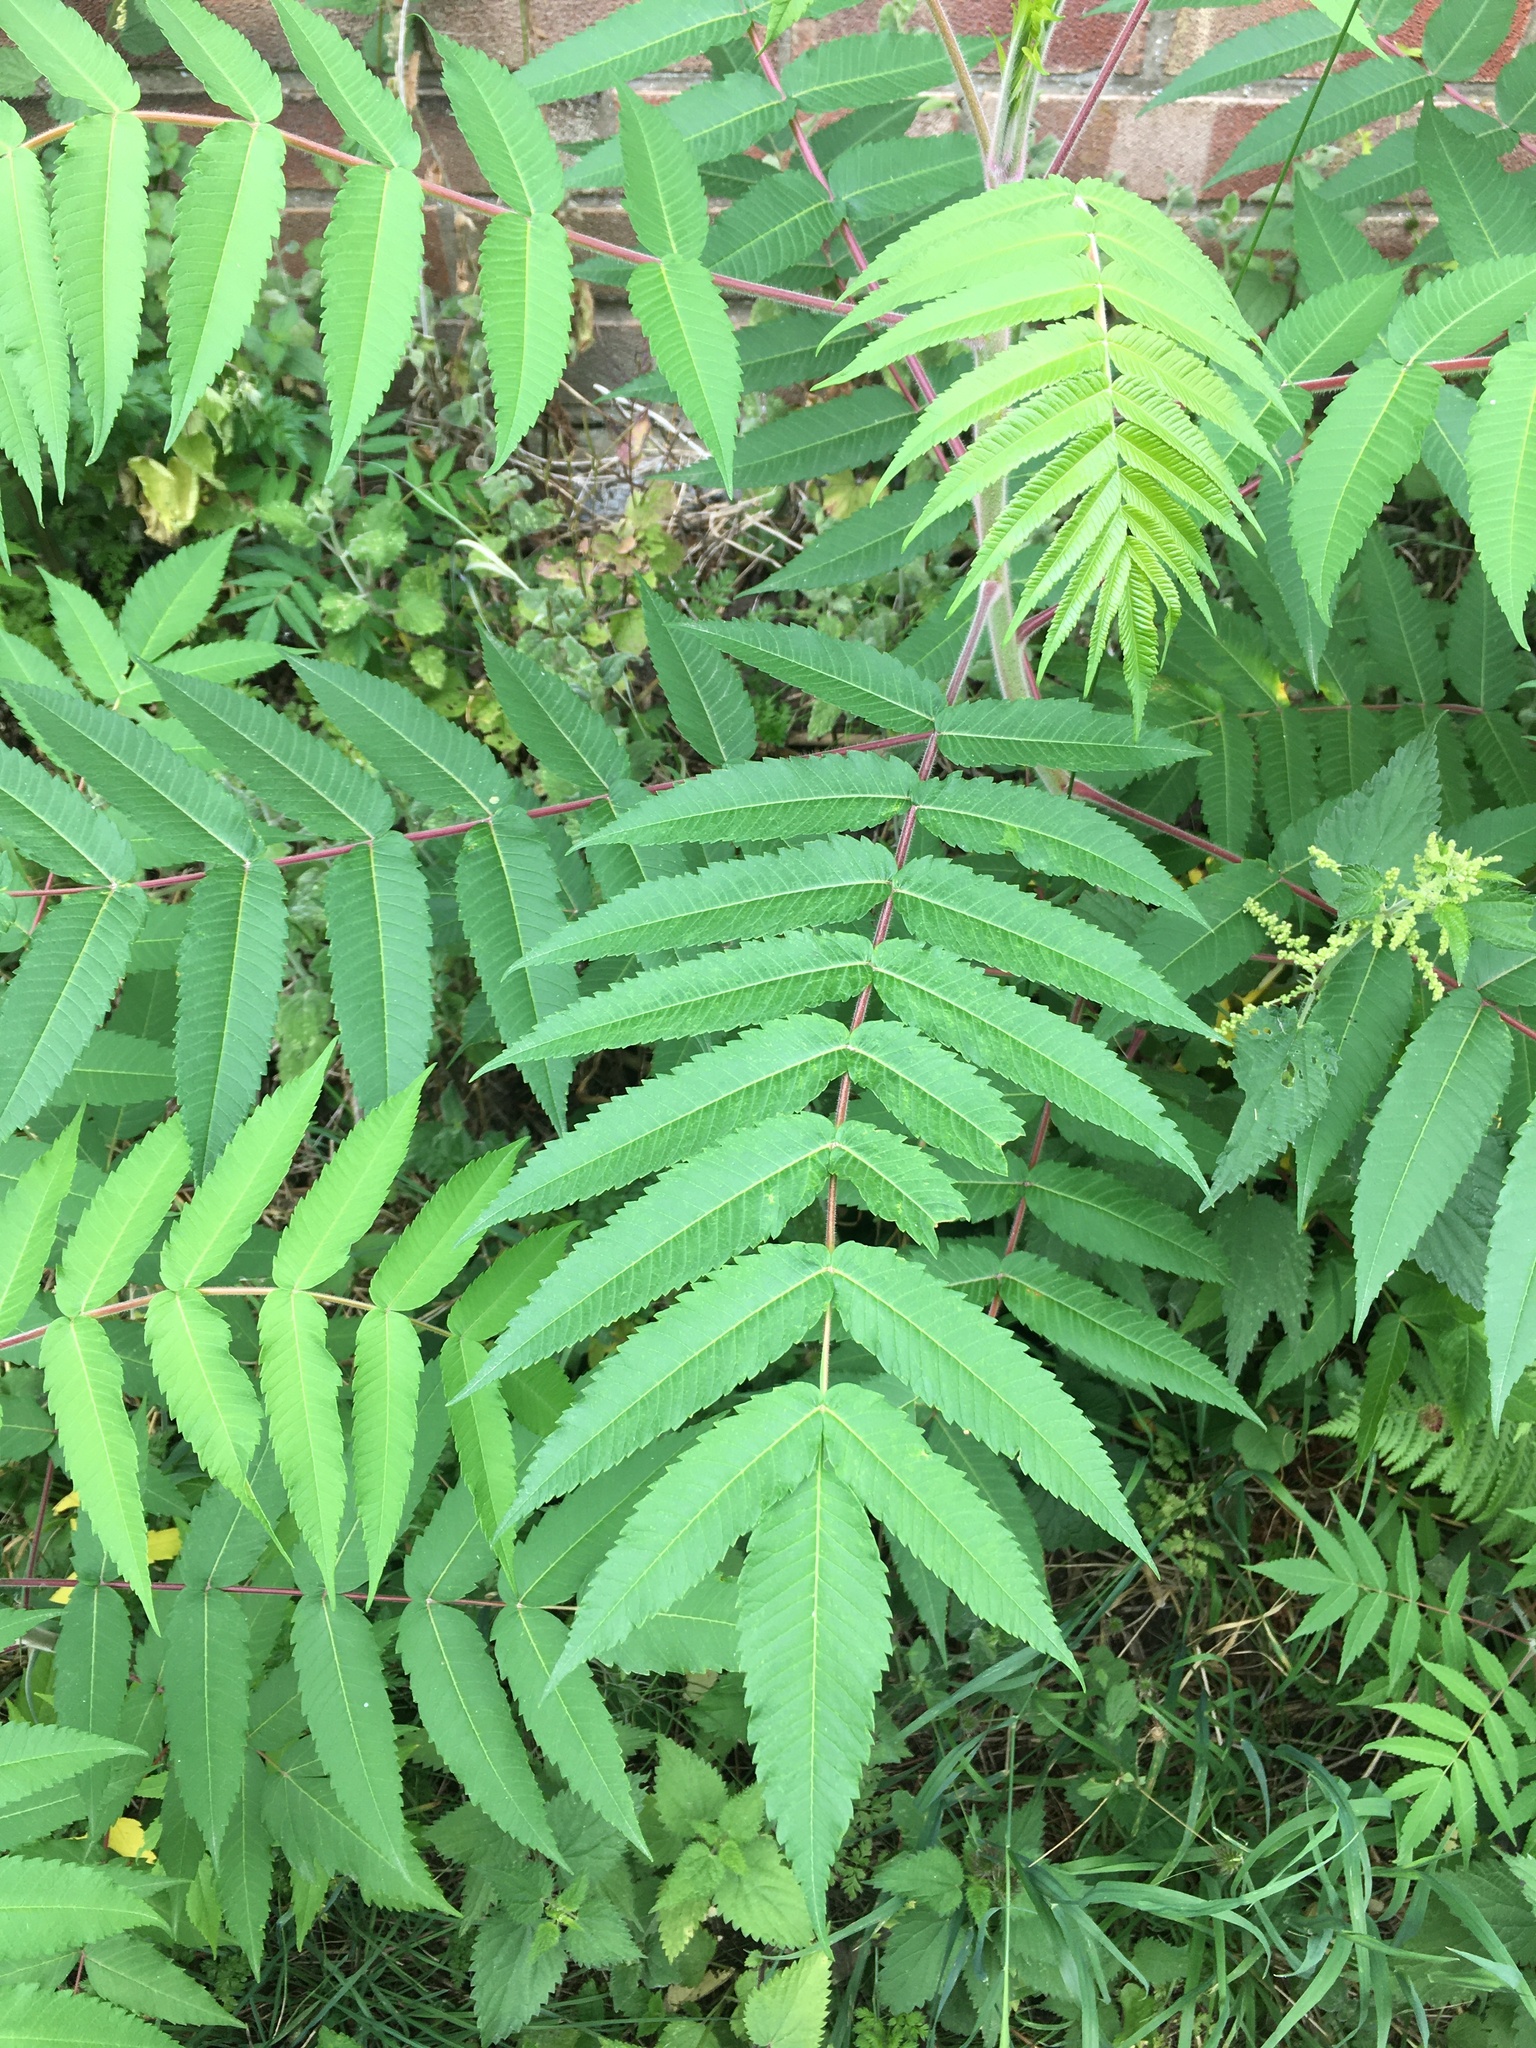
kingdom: Plantae
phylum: Tracheophyta
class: Magnoliopsida
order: Sapindales
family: Anacardiaceae
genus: Rhus
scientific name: Rhus typhina
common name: Staghorn sumac
